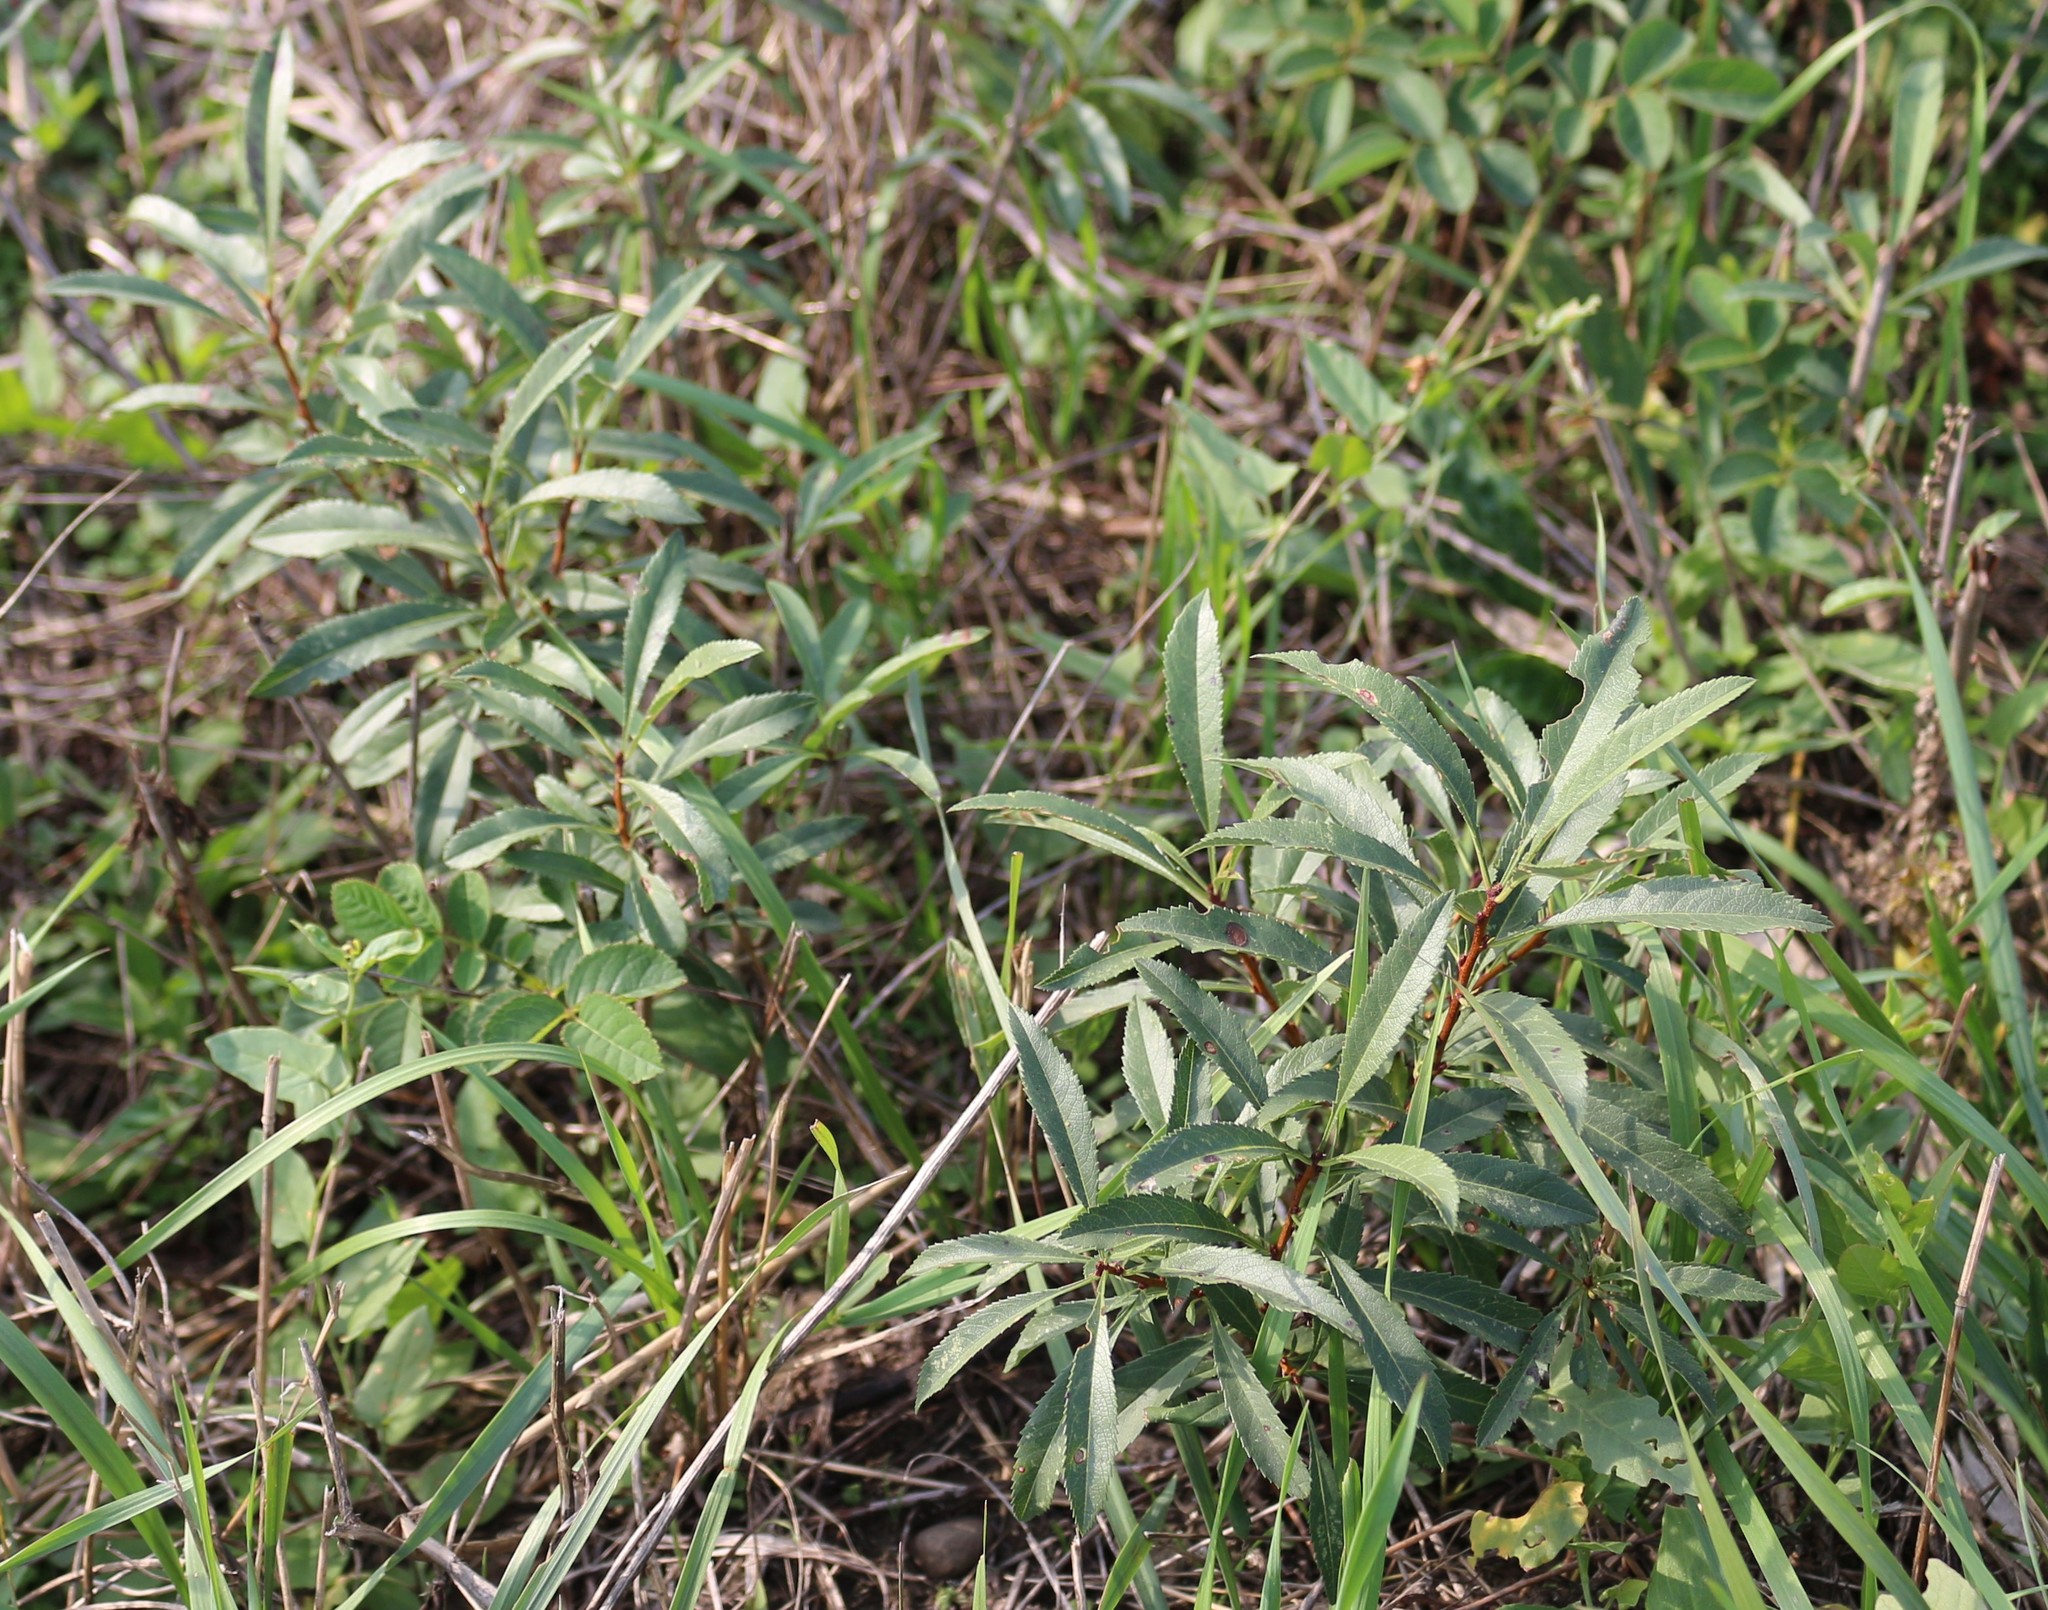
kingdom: Plantae
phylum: Tracheophyta
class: Magnoliopsida
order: Rosales
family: Rosaceae
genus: Prunus
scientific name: Prunus tenella
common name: Dwarf russian almond
